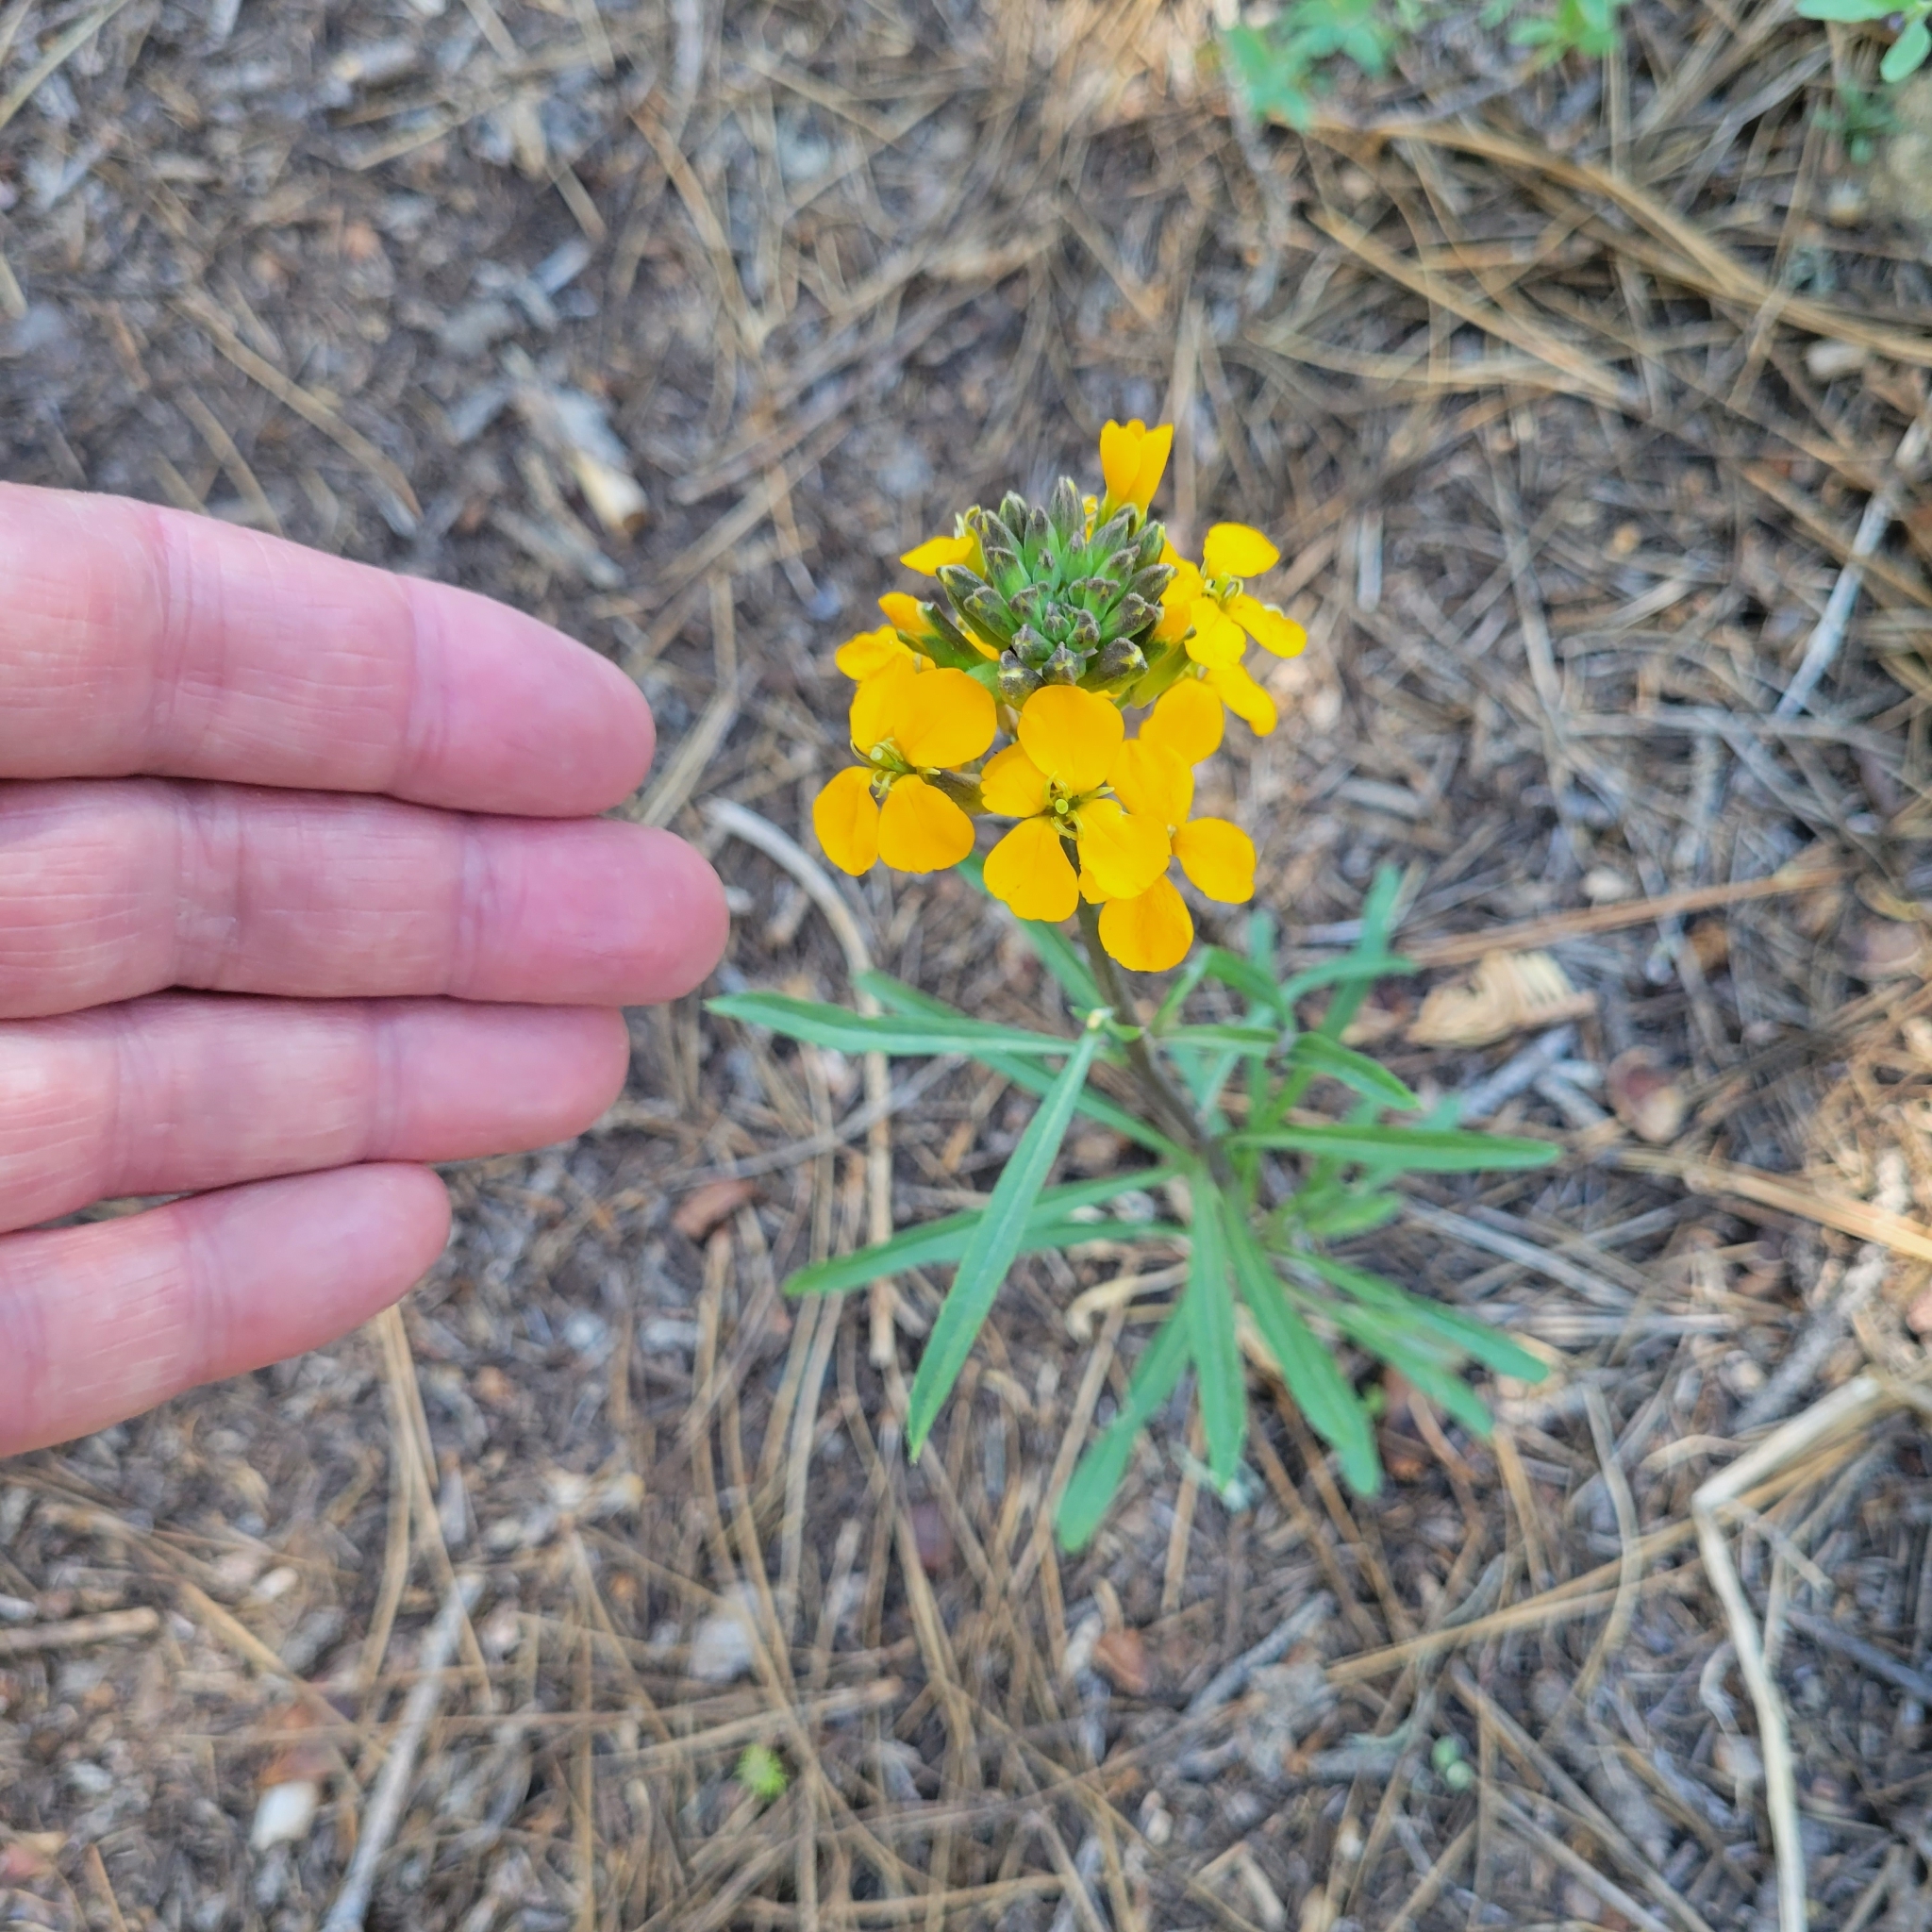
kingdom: Plantae
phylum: Tracheophyta
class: Magnoliopsida
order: Brassicales
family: Brassicaceae
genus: Erysimum
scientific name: Erysimum capitatum
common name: Western wallflower
